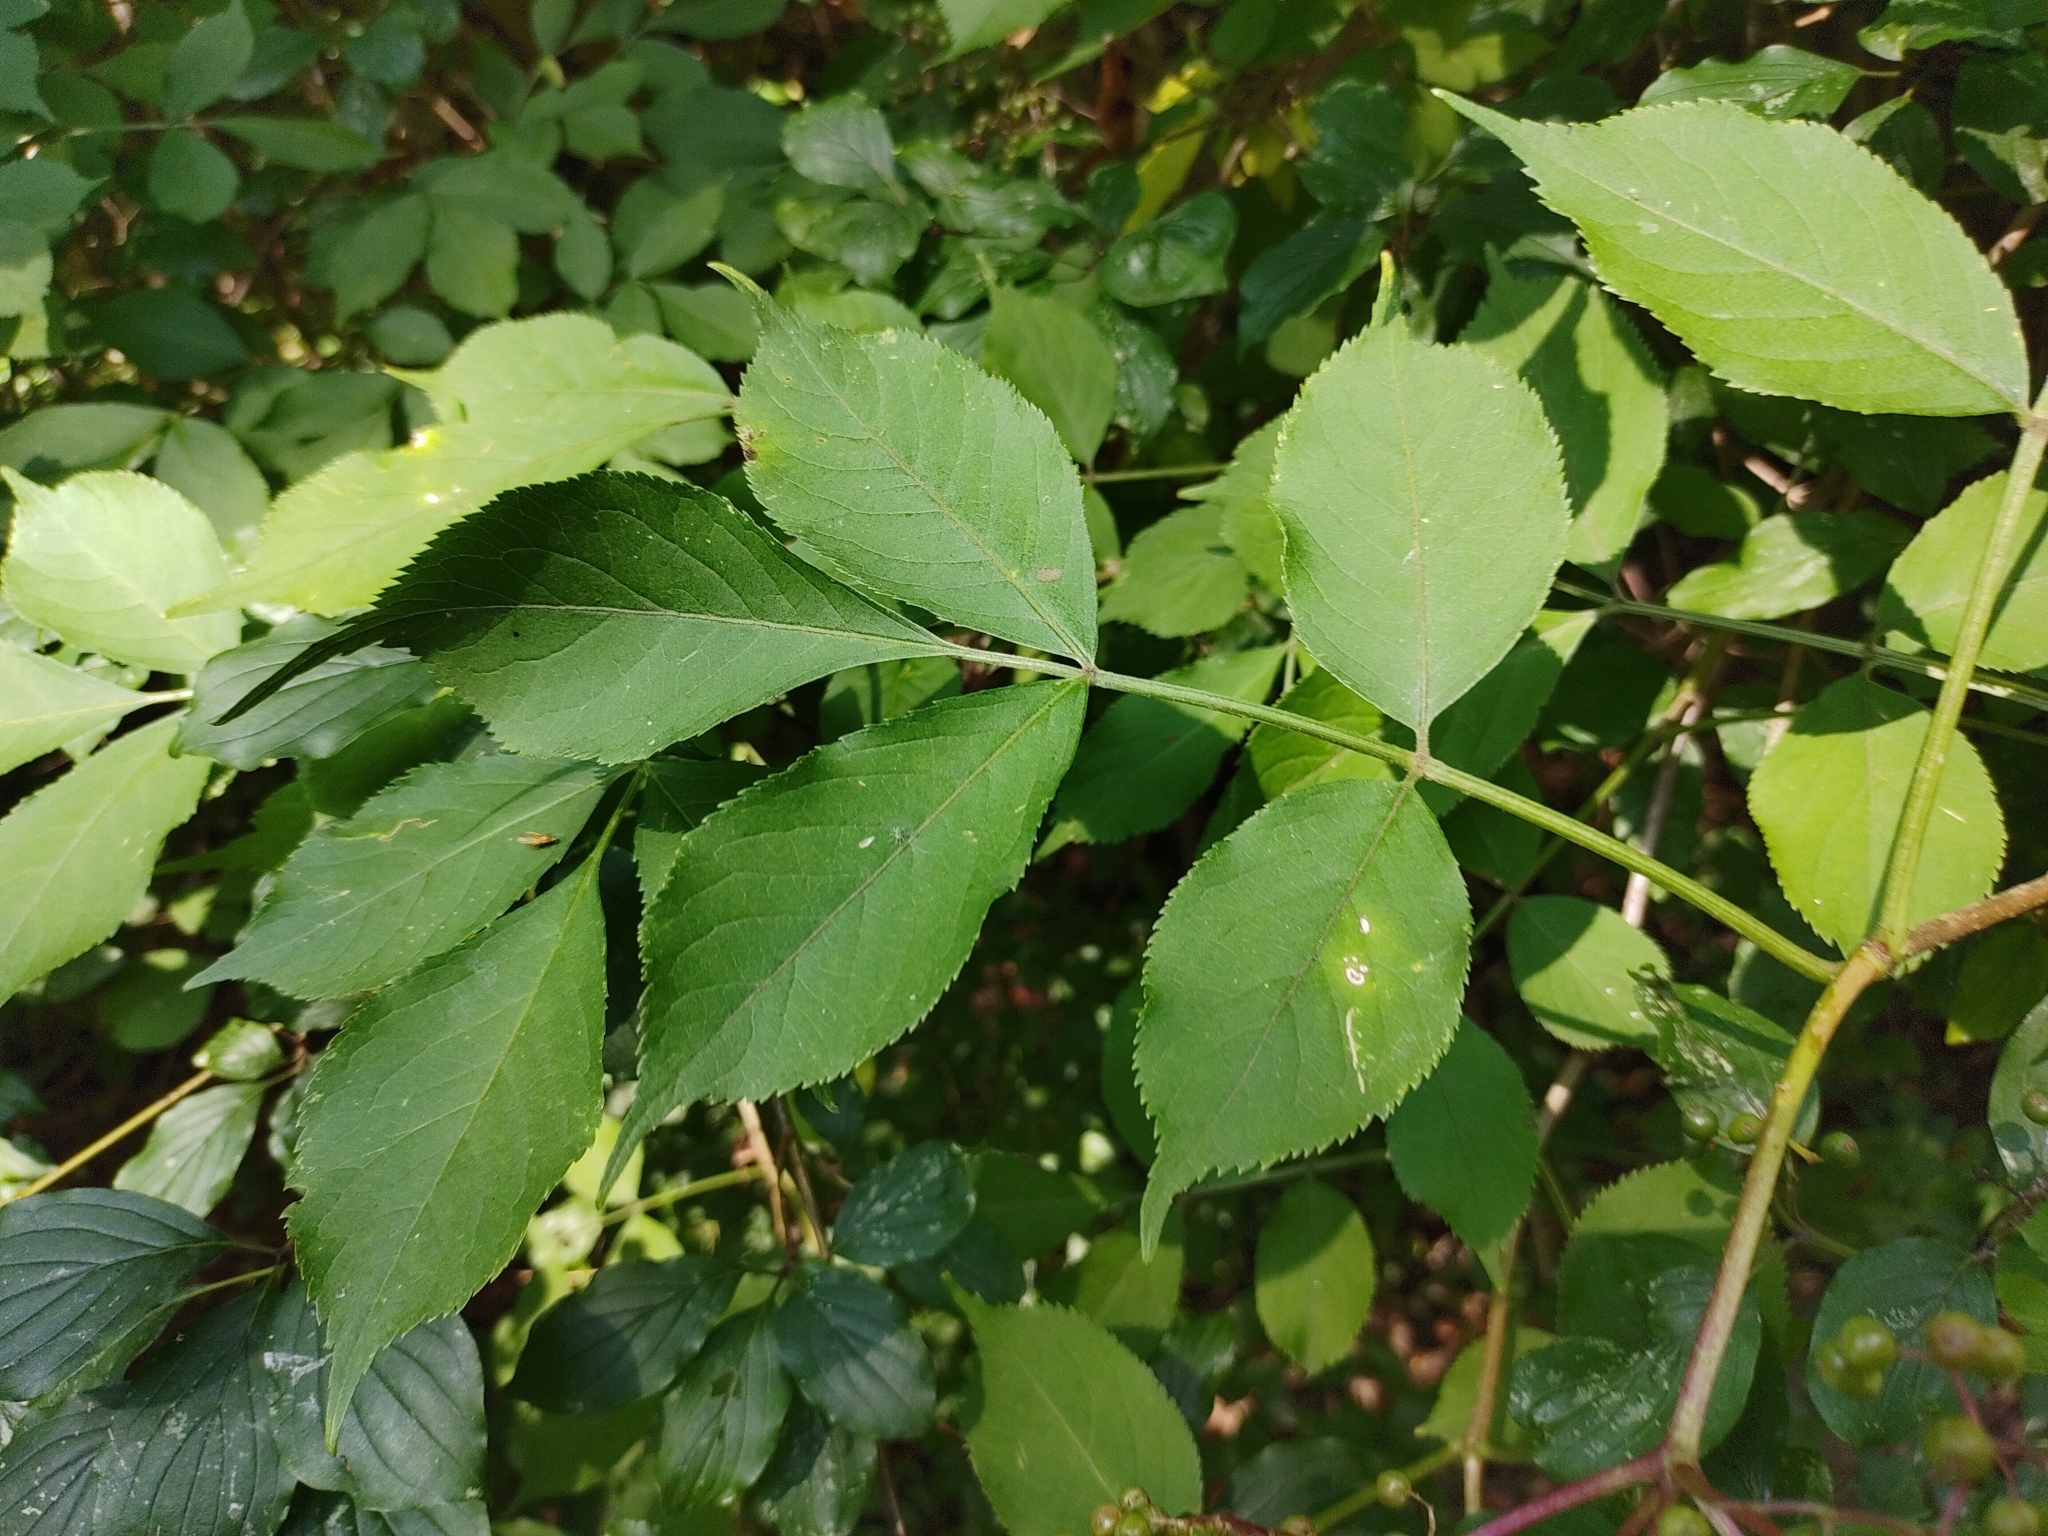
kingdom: Plantae
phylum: Tracheophyta
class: Magnoliopsida
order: Dipsacales
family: Viburnaceae
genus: Sambucus
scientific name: Sambucus nigra
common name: Elder
